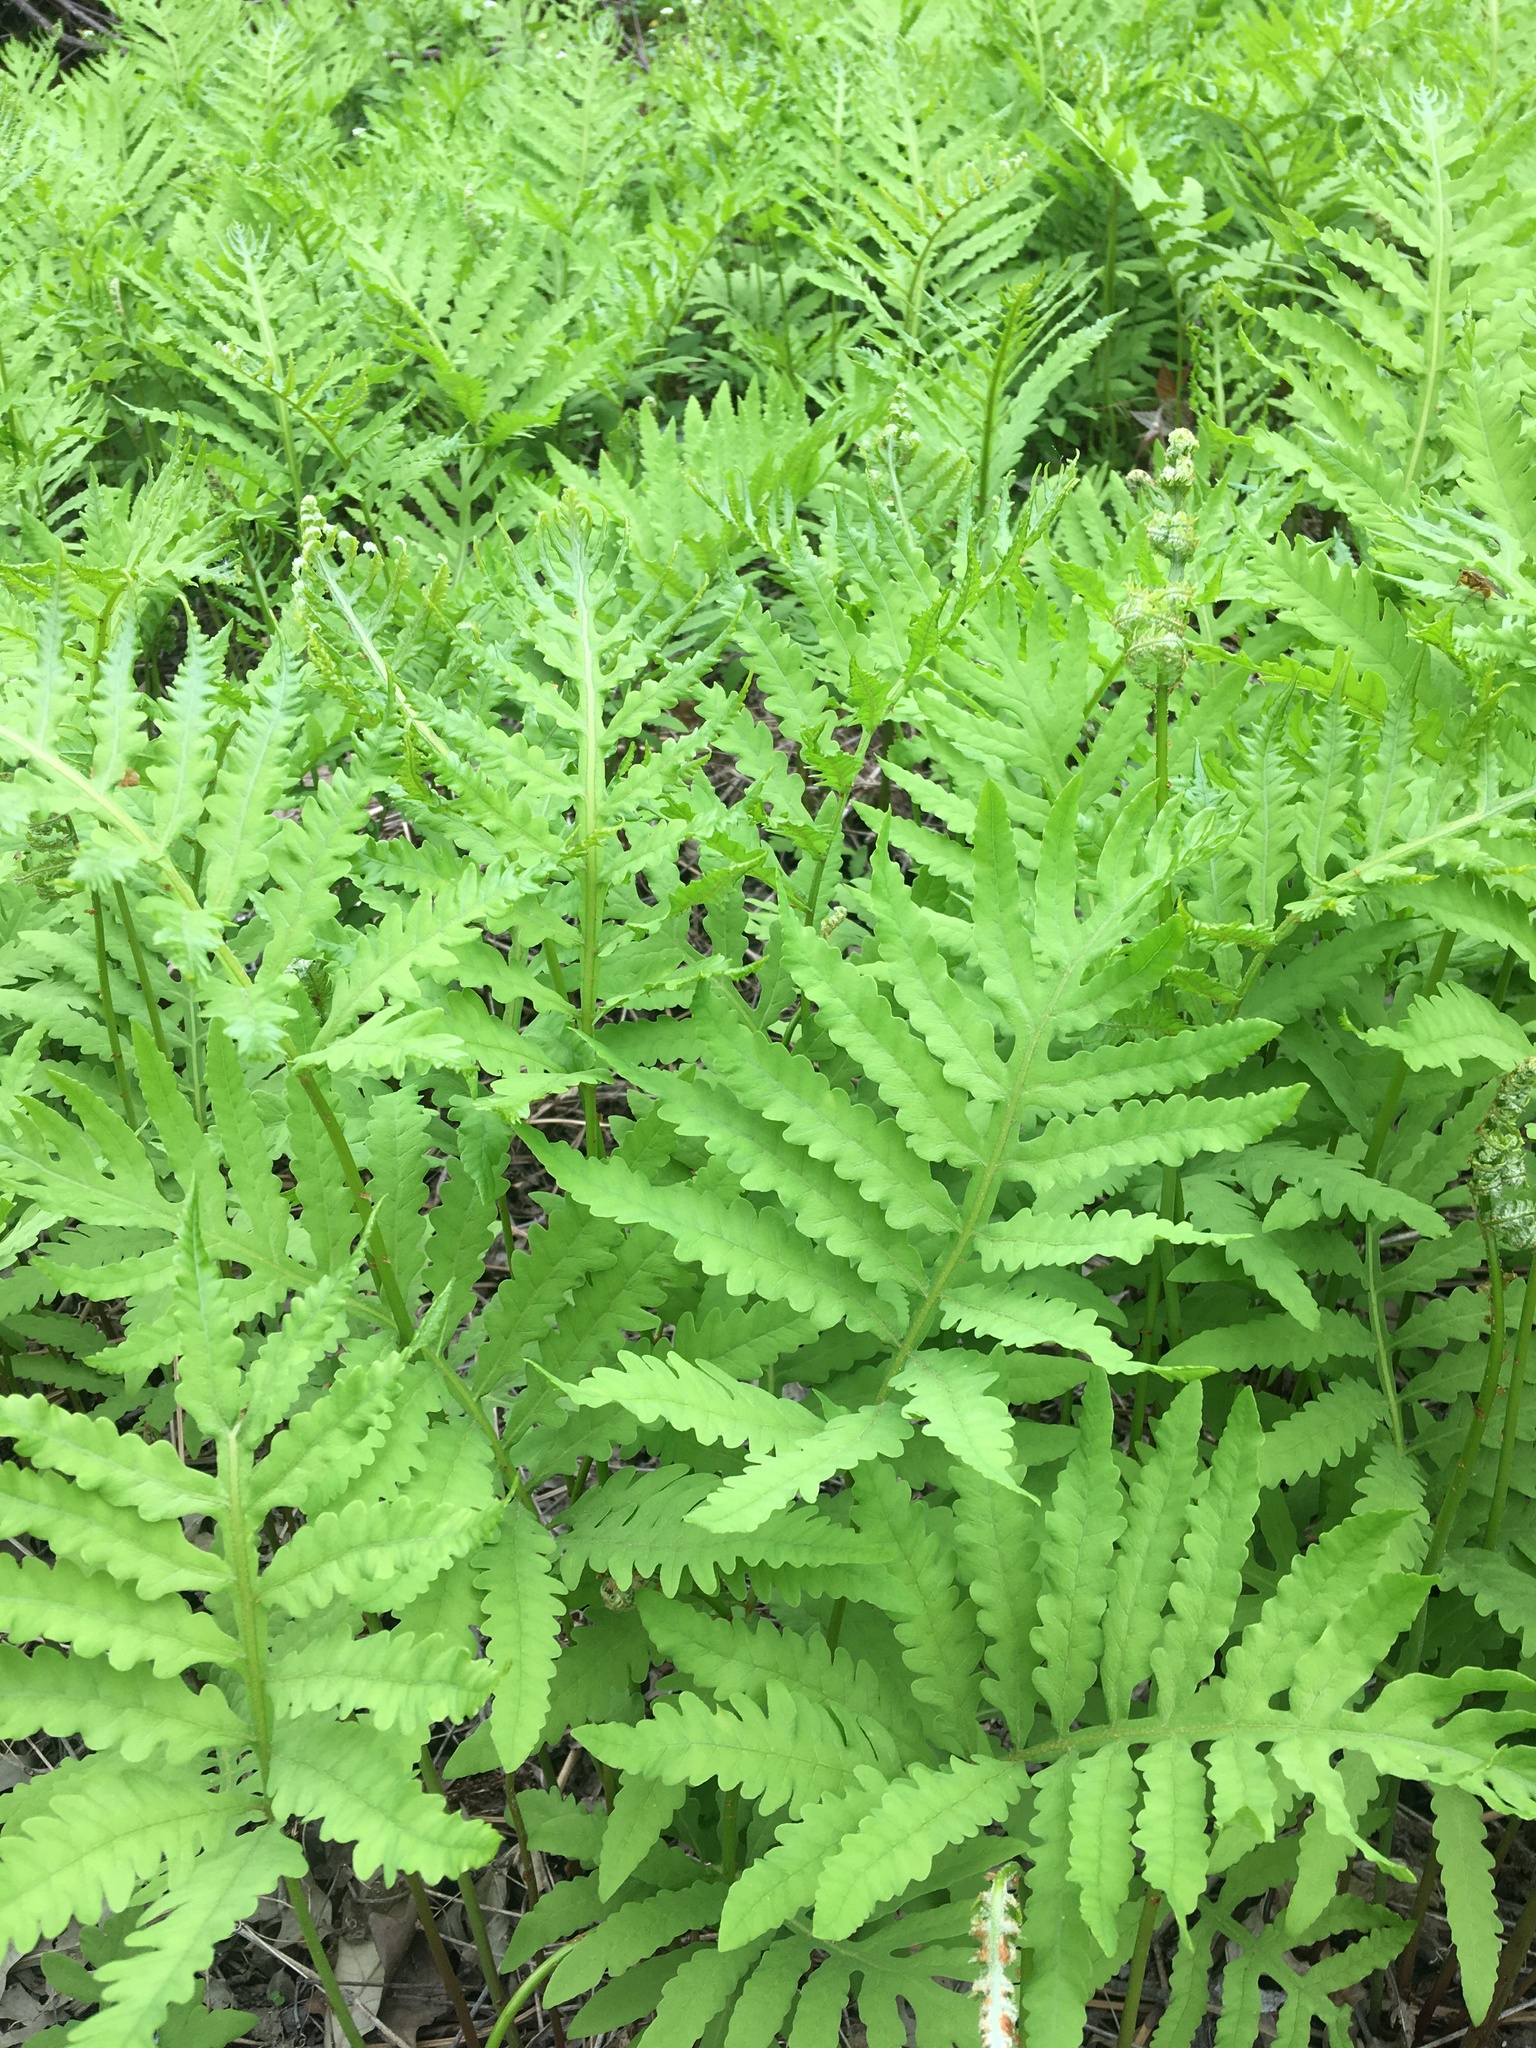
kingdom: Plantae
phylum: Tracheophyta
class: Polypodiopsida
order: Polypodiales
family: Onocleaceae
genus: Onoclea
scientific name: Onoclea sensibilis
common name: Sensitive fern
